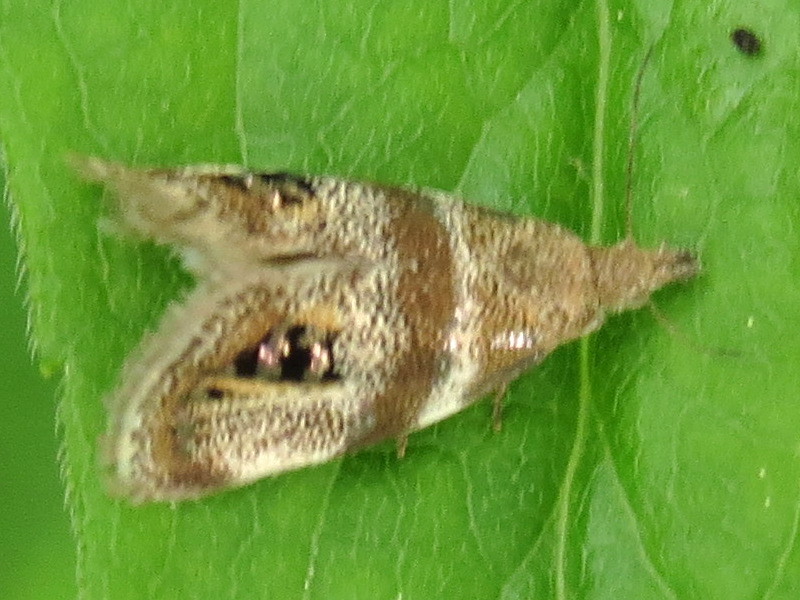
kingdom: Animalia
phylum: Arthropoda
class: Insecta
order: Lepidoptera
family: Choreutidae
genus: Pseudcaloreas
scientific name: Pseudcaloreas extrincicella
